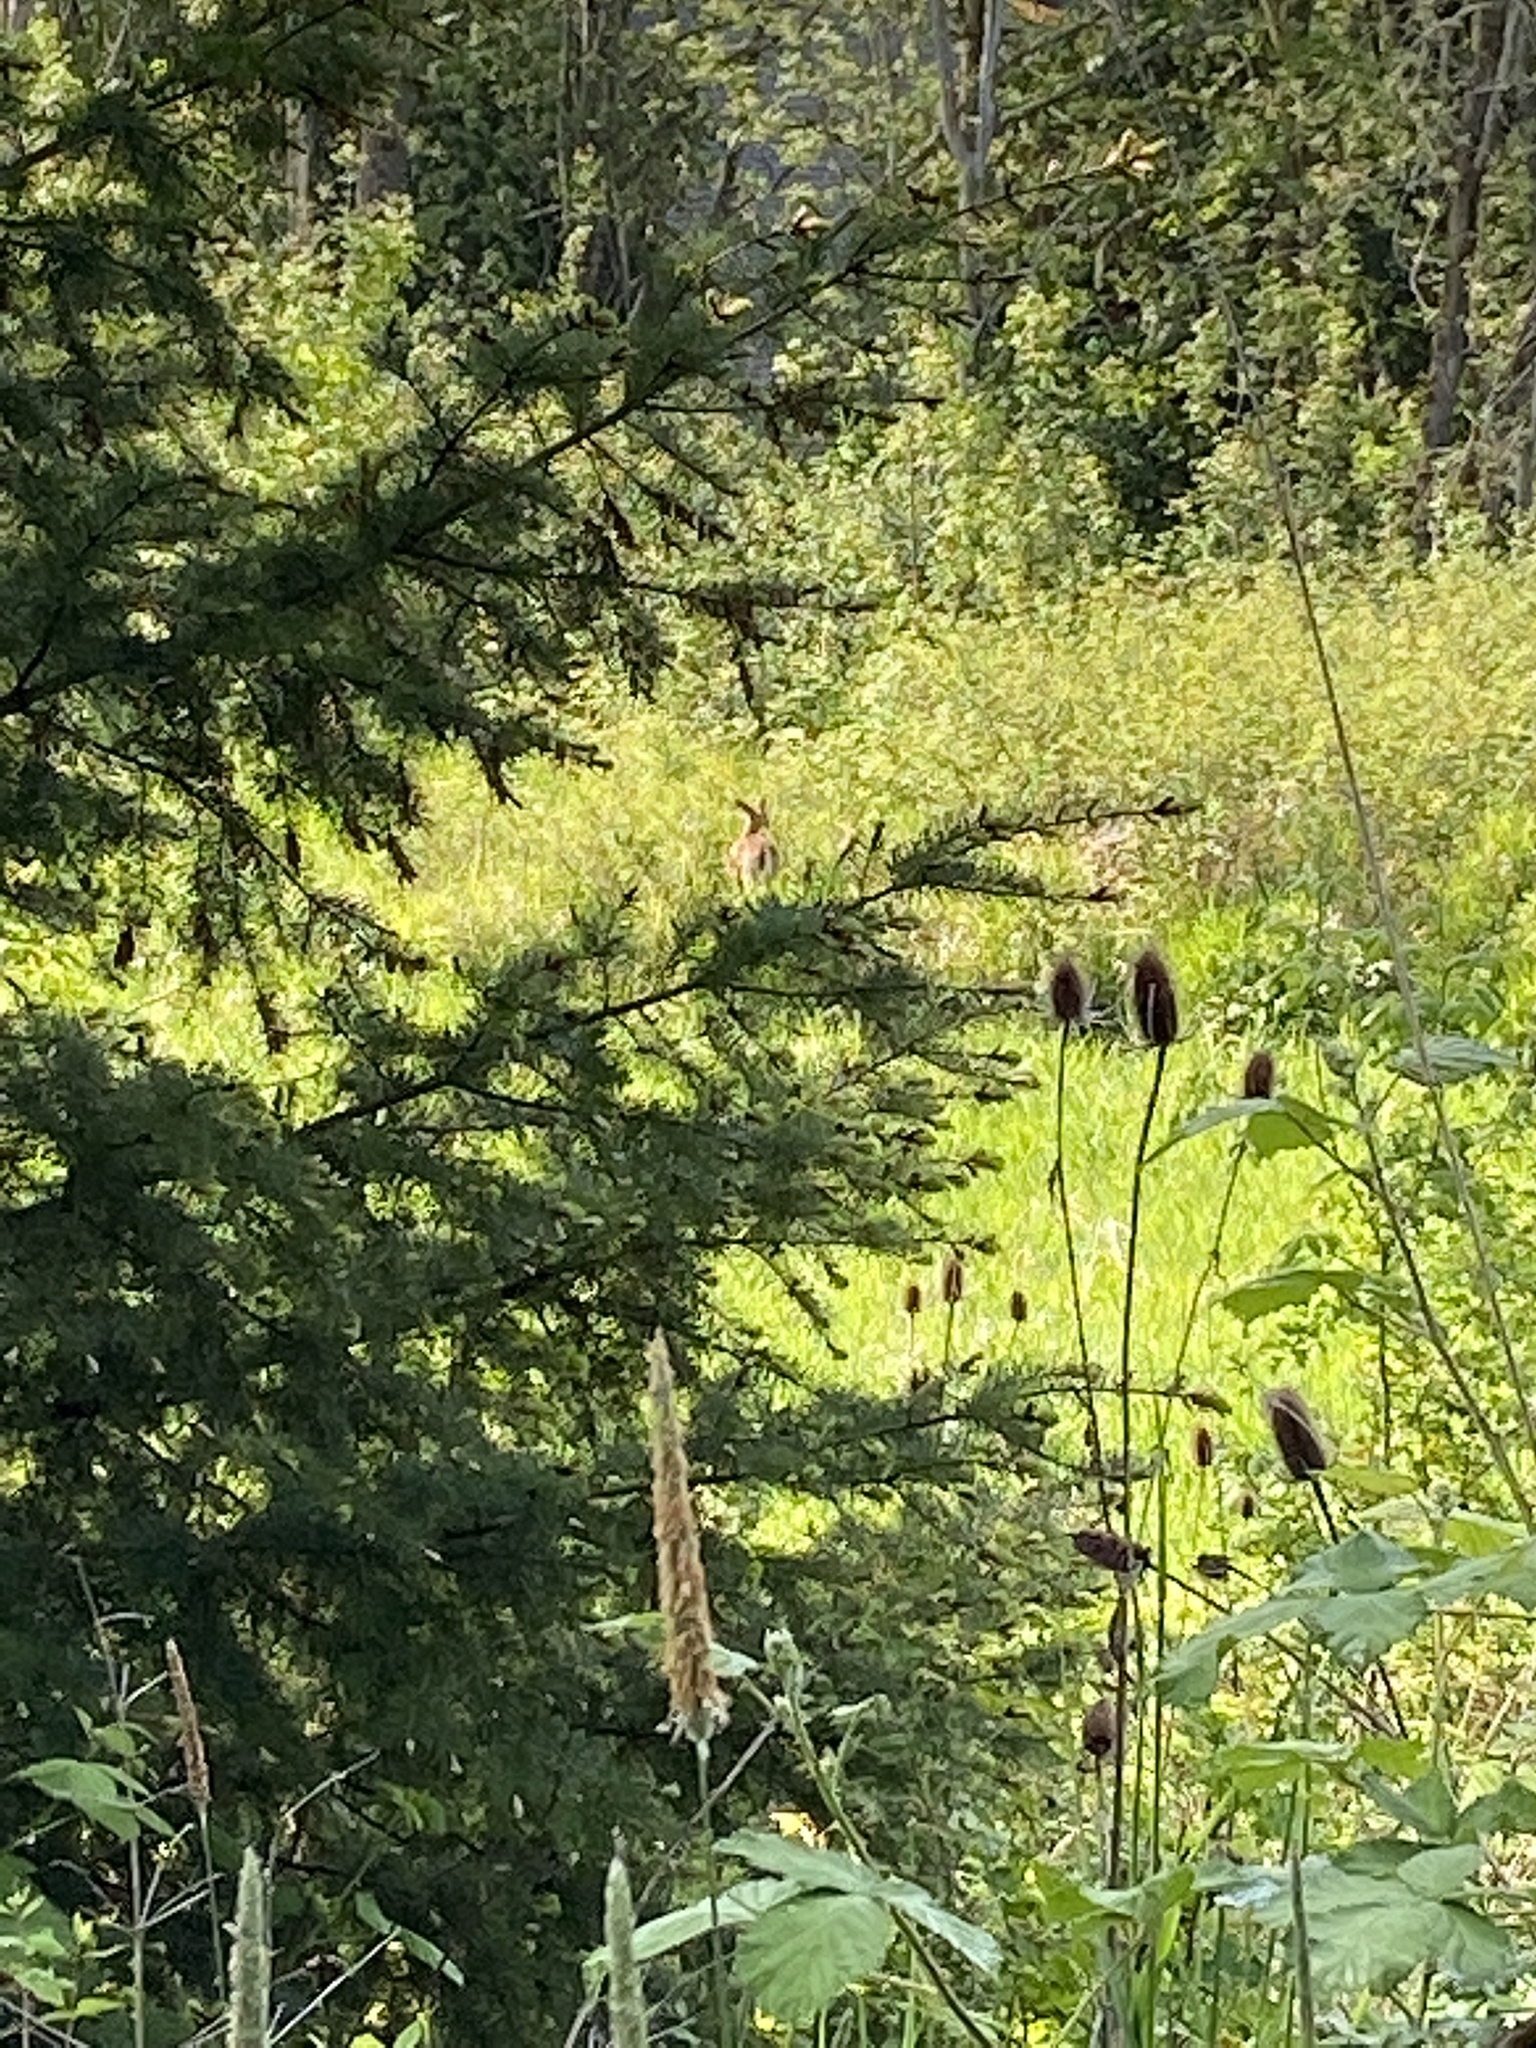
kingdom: Animalia
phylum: Chordata
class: Mammalia
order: Artiodactyla
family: Cervidae
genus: Odocoileus
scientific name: Odocoileus hemionus
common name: Mule deer
